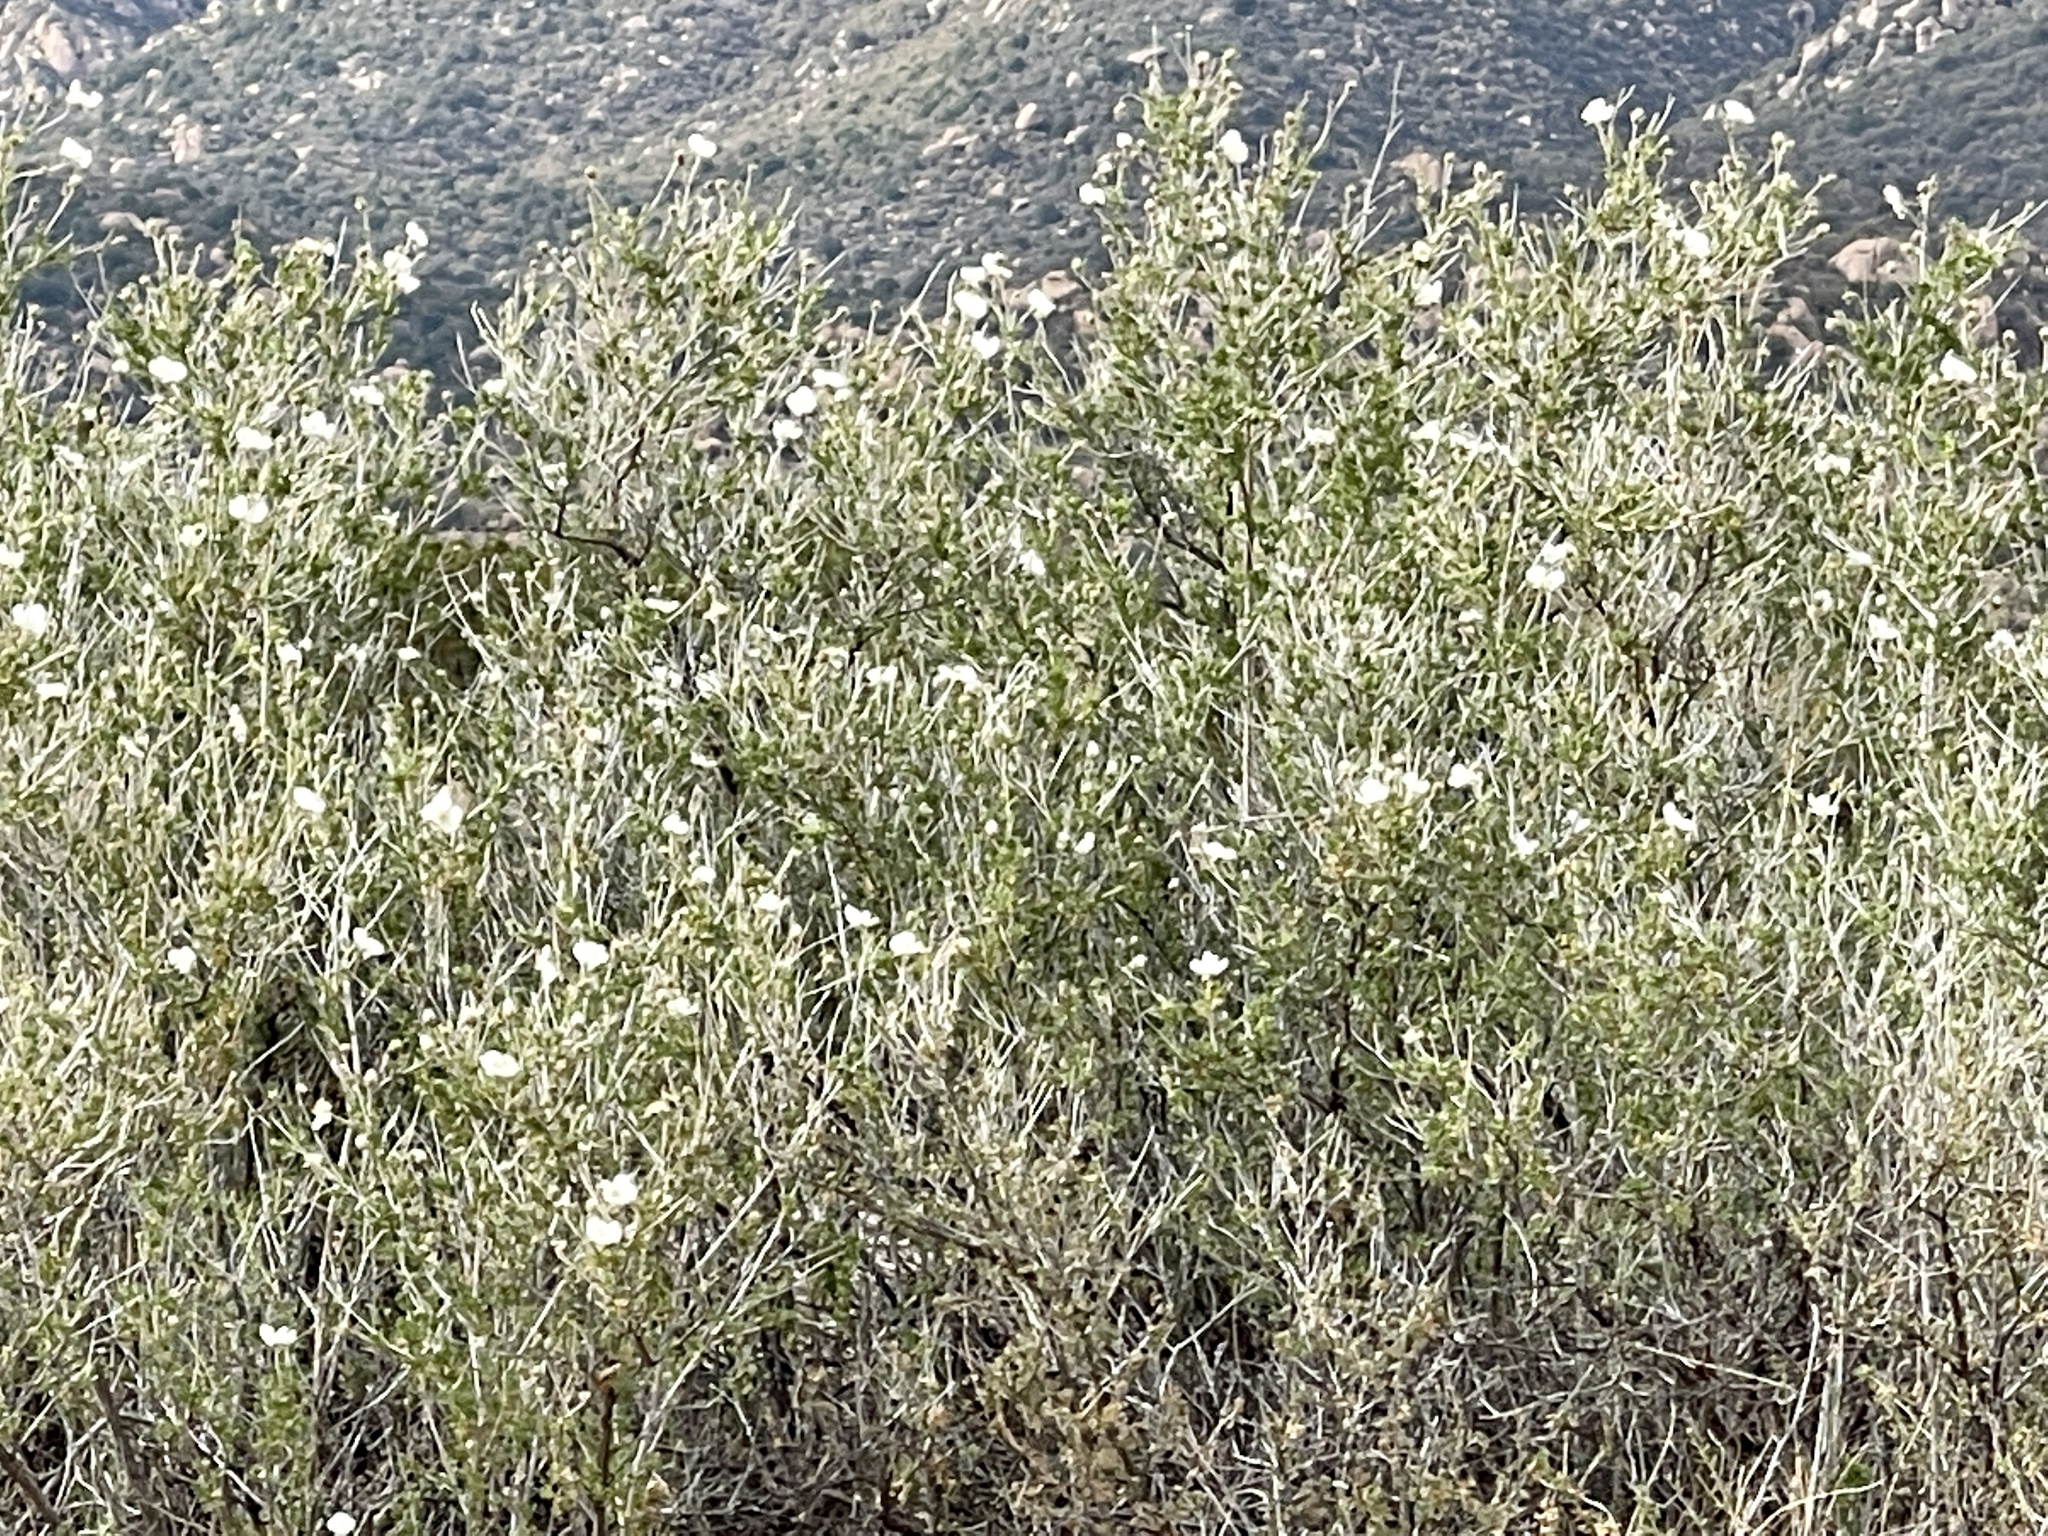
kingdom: Plantae
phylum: Tracheophyta
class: Magnoliopsida
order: Rosales
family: Rosaceae
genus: Fallugia
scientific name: Fallugia paradoxa
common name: Apache-plume
